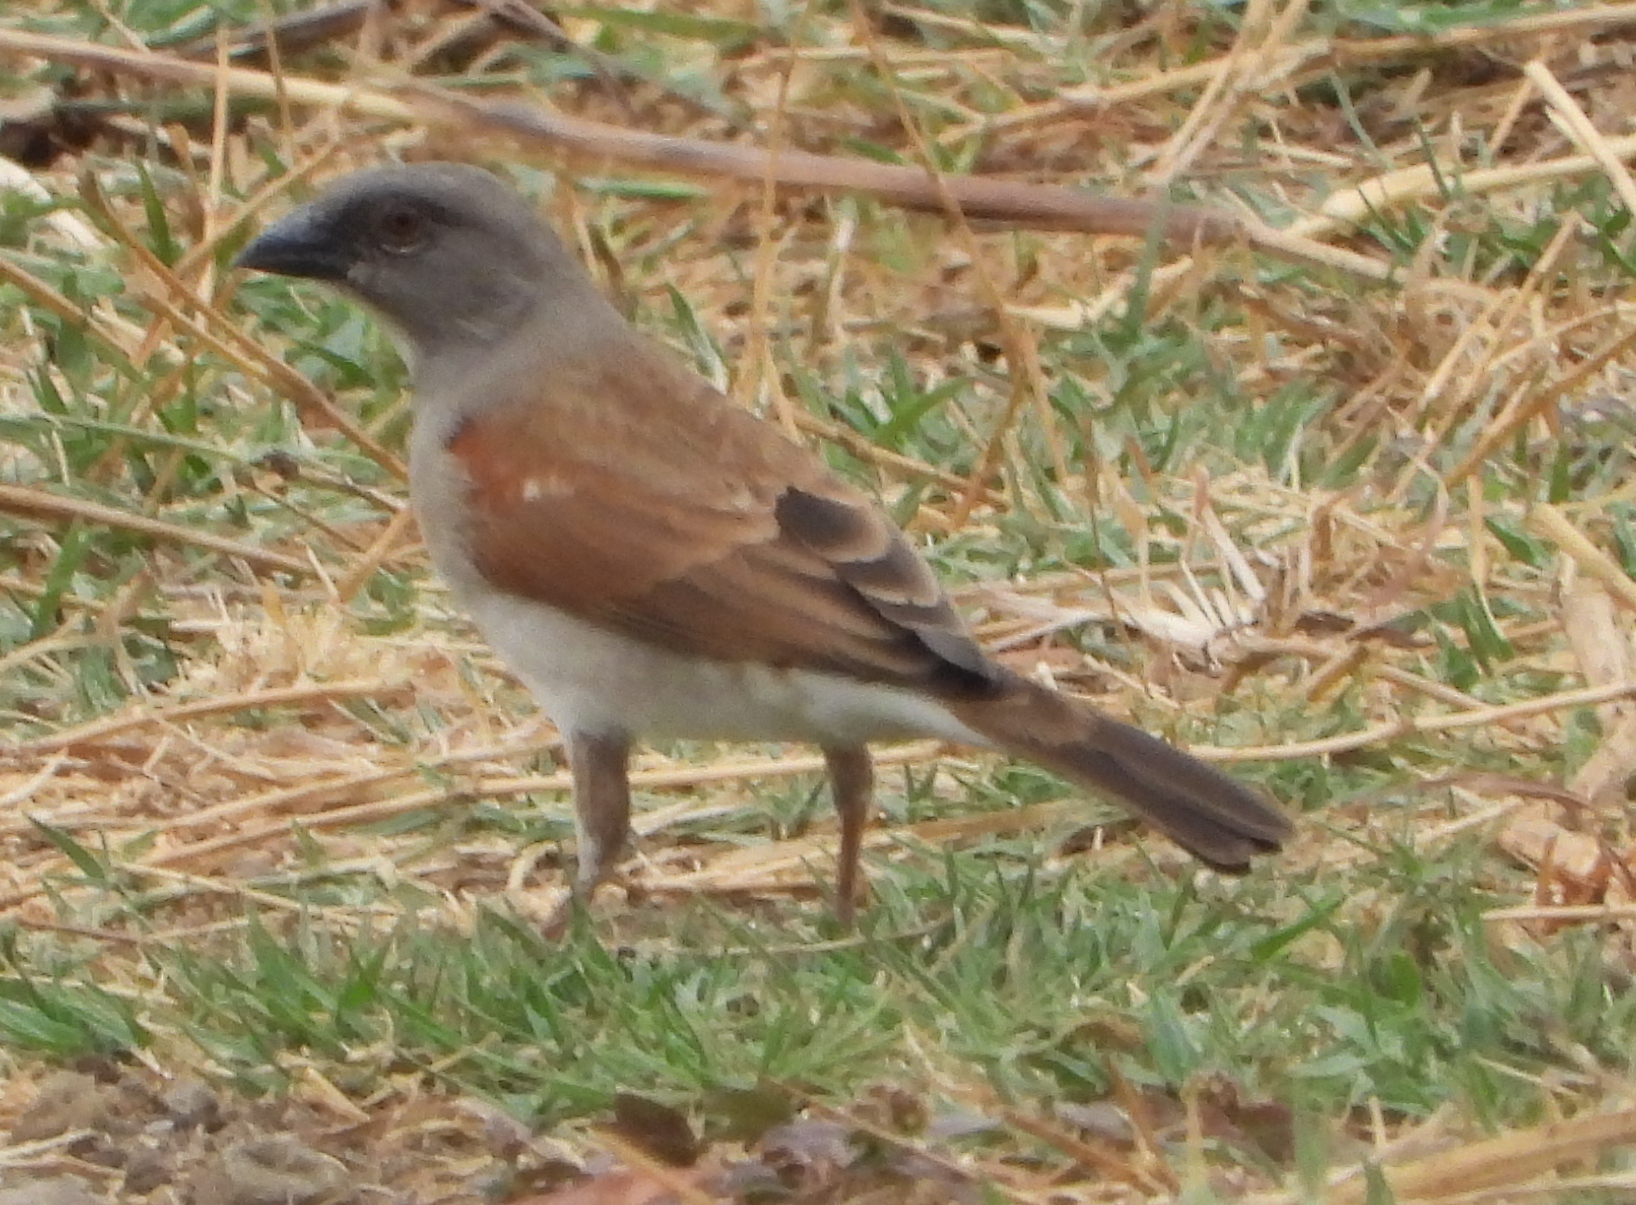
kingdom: Animalia
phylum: Chordata
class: Aves
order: Passeriformes
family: Passeridae
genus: Passer
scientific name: Passer griseus
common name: Northern grey-headed sparrow
